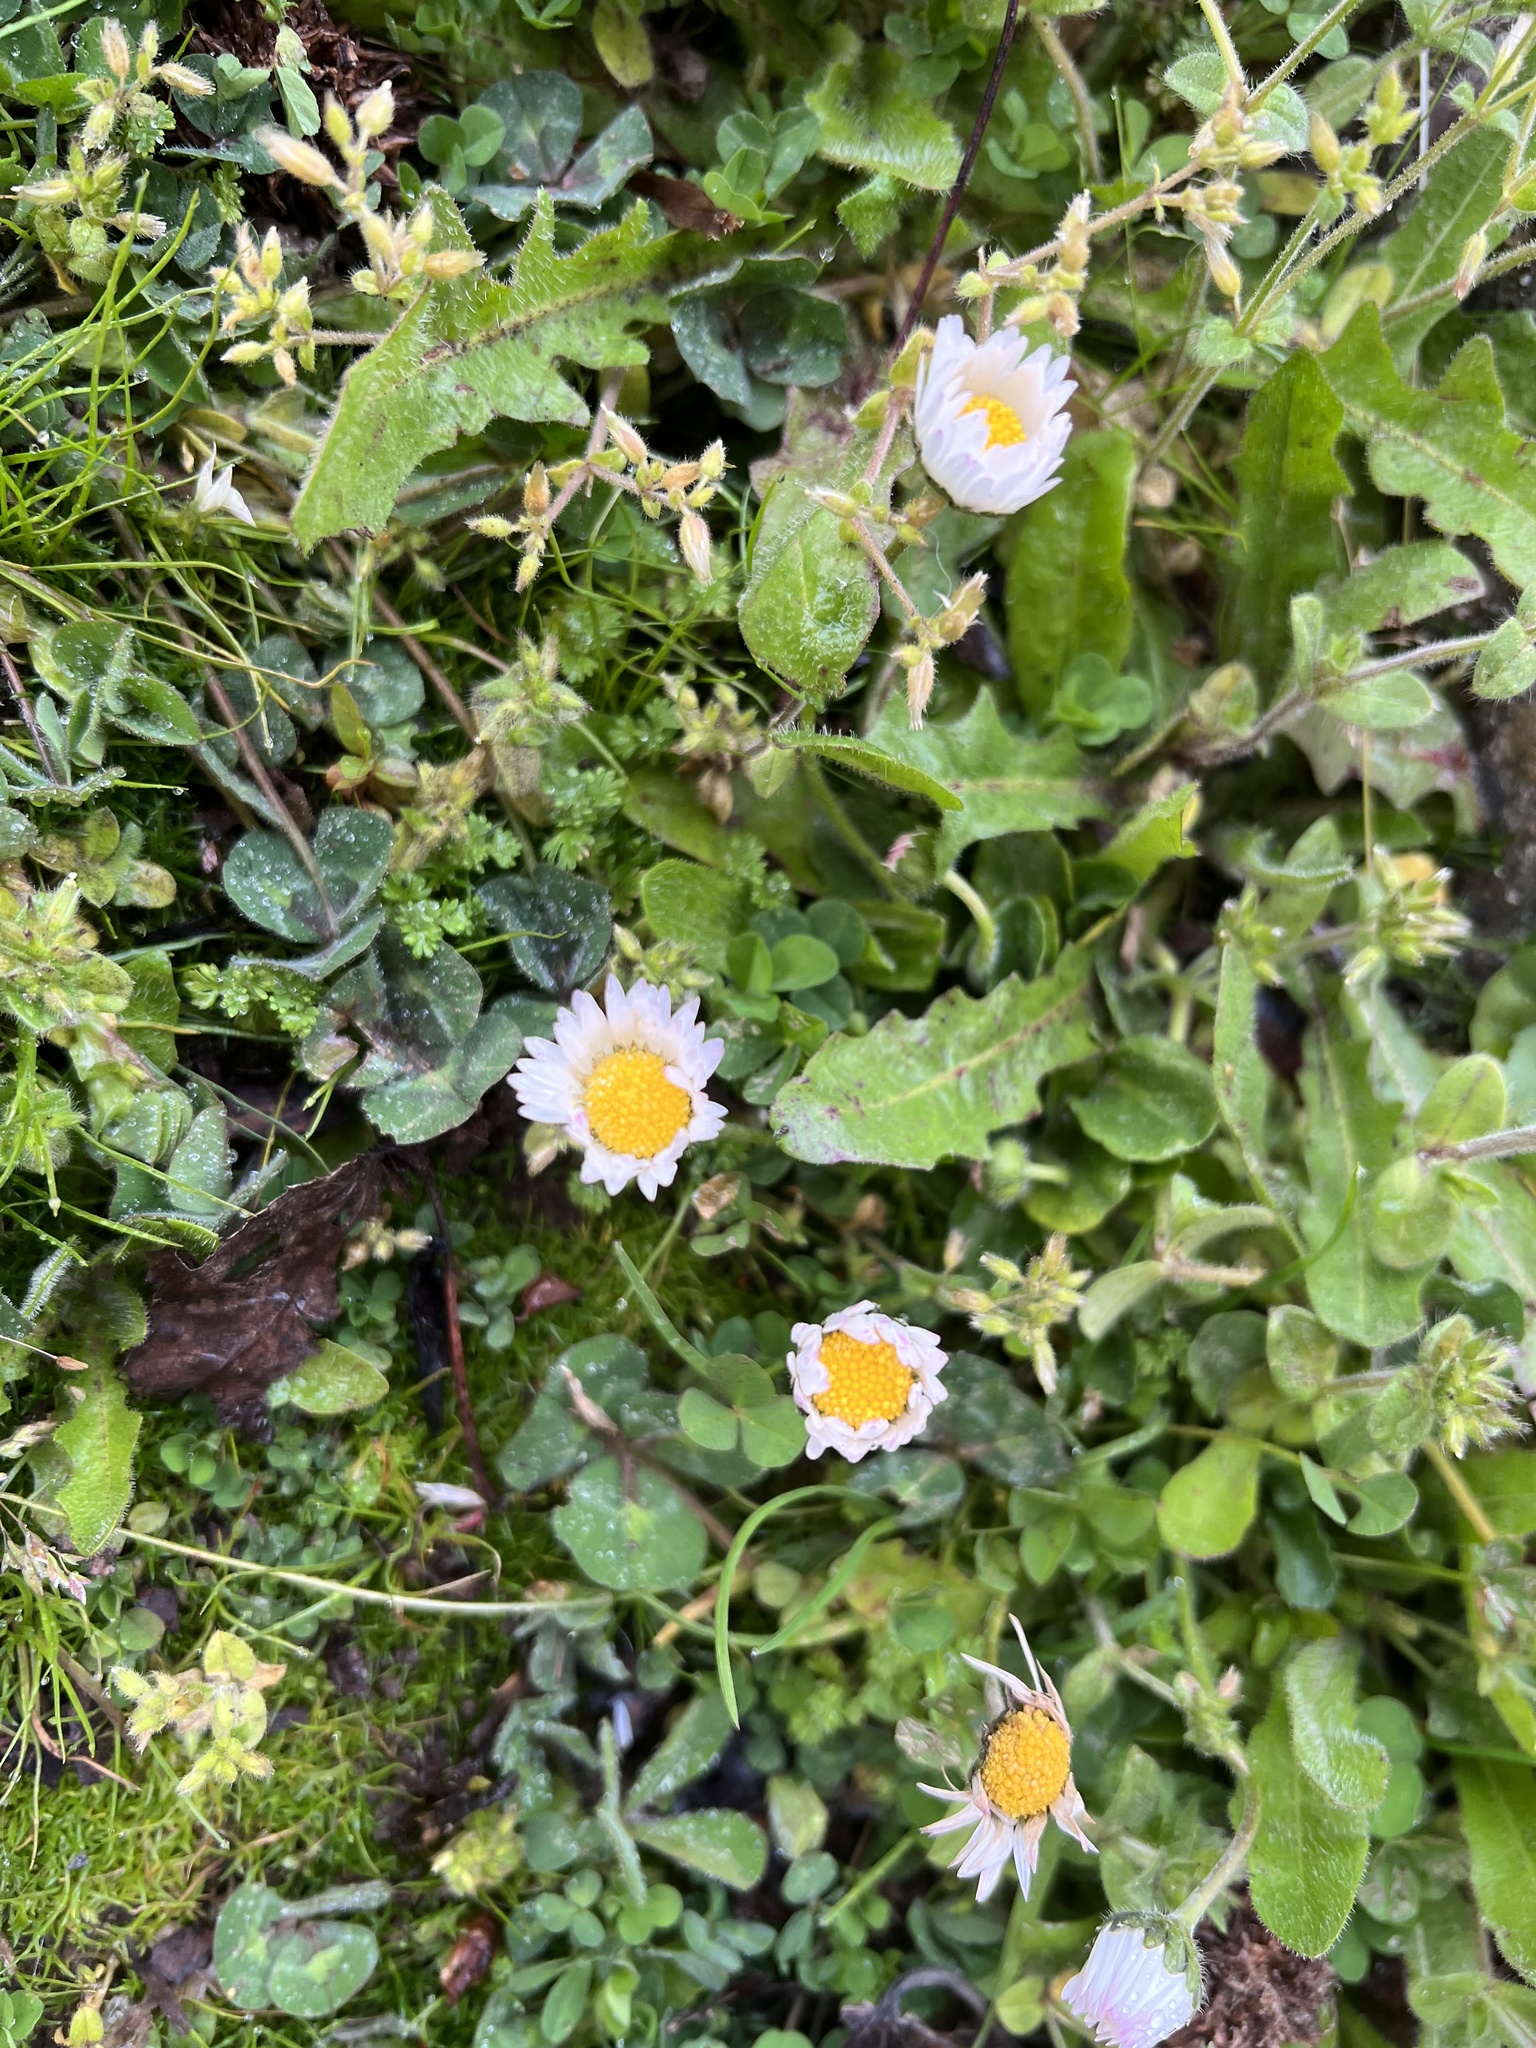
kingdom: Plantae
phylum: Tracheophyta
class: Magnoliopsida
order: Asterales
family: Asteraceae
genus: Bellis
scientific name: Bellis perennis
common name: Lawndaisy
